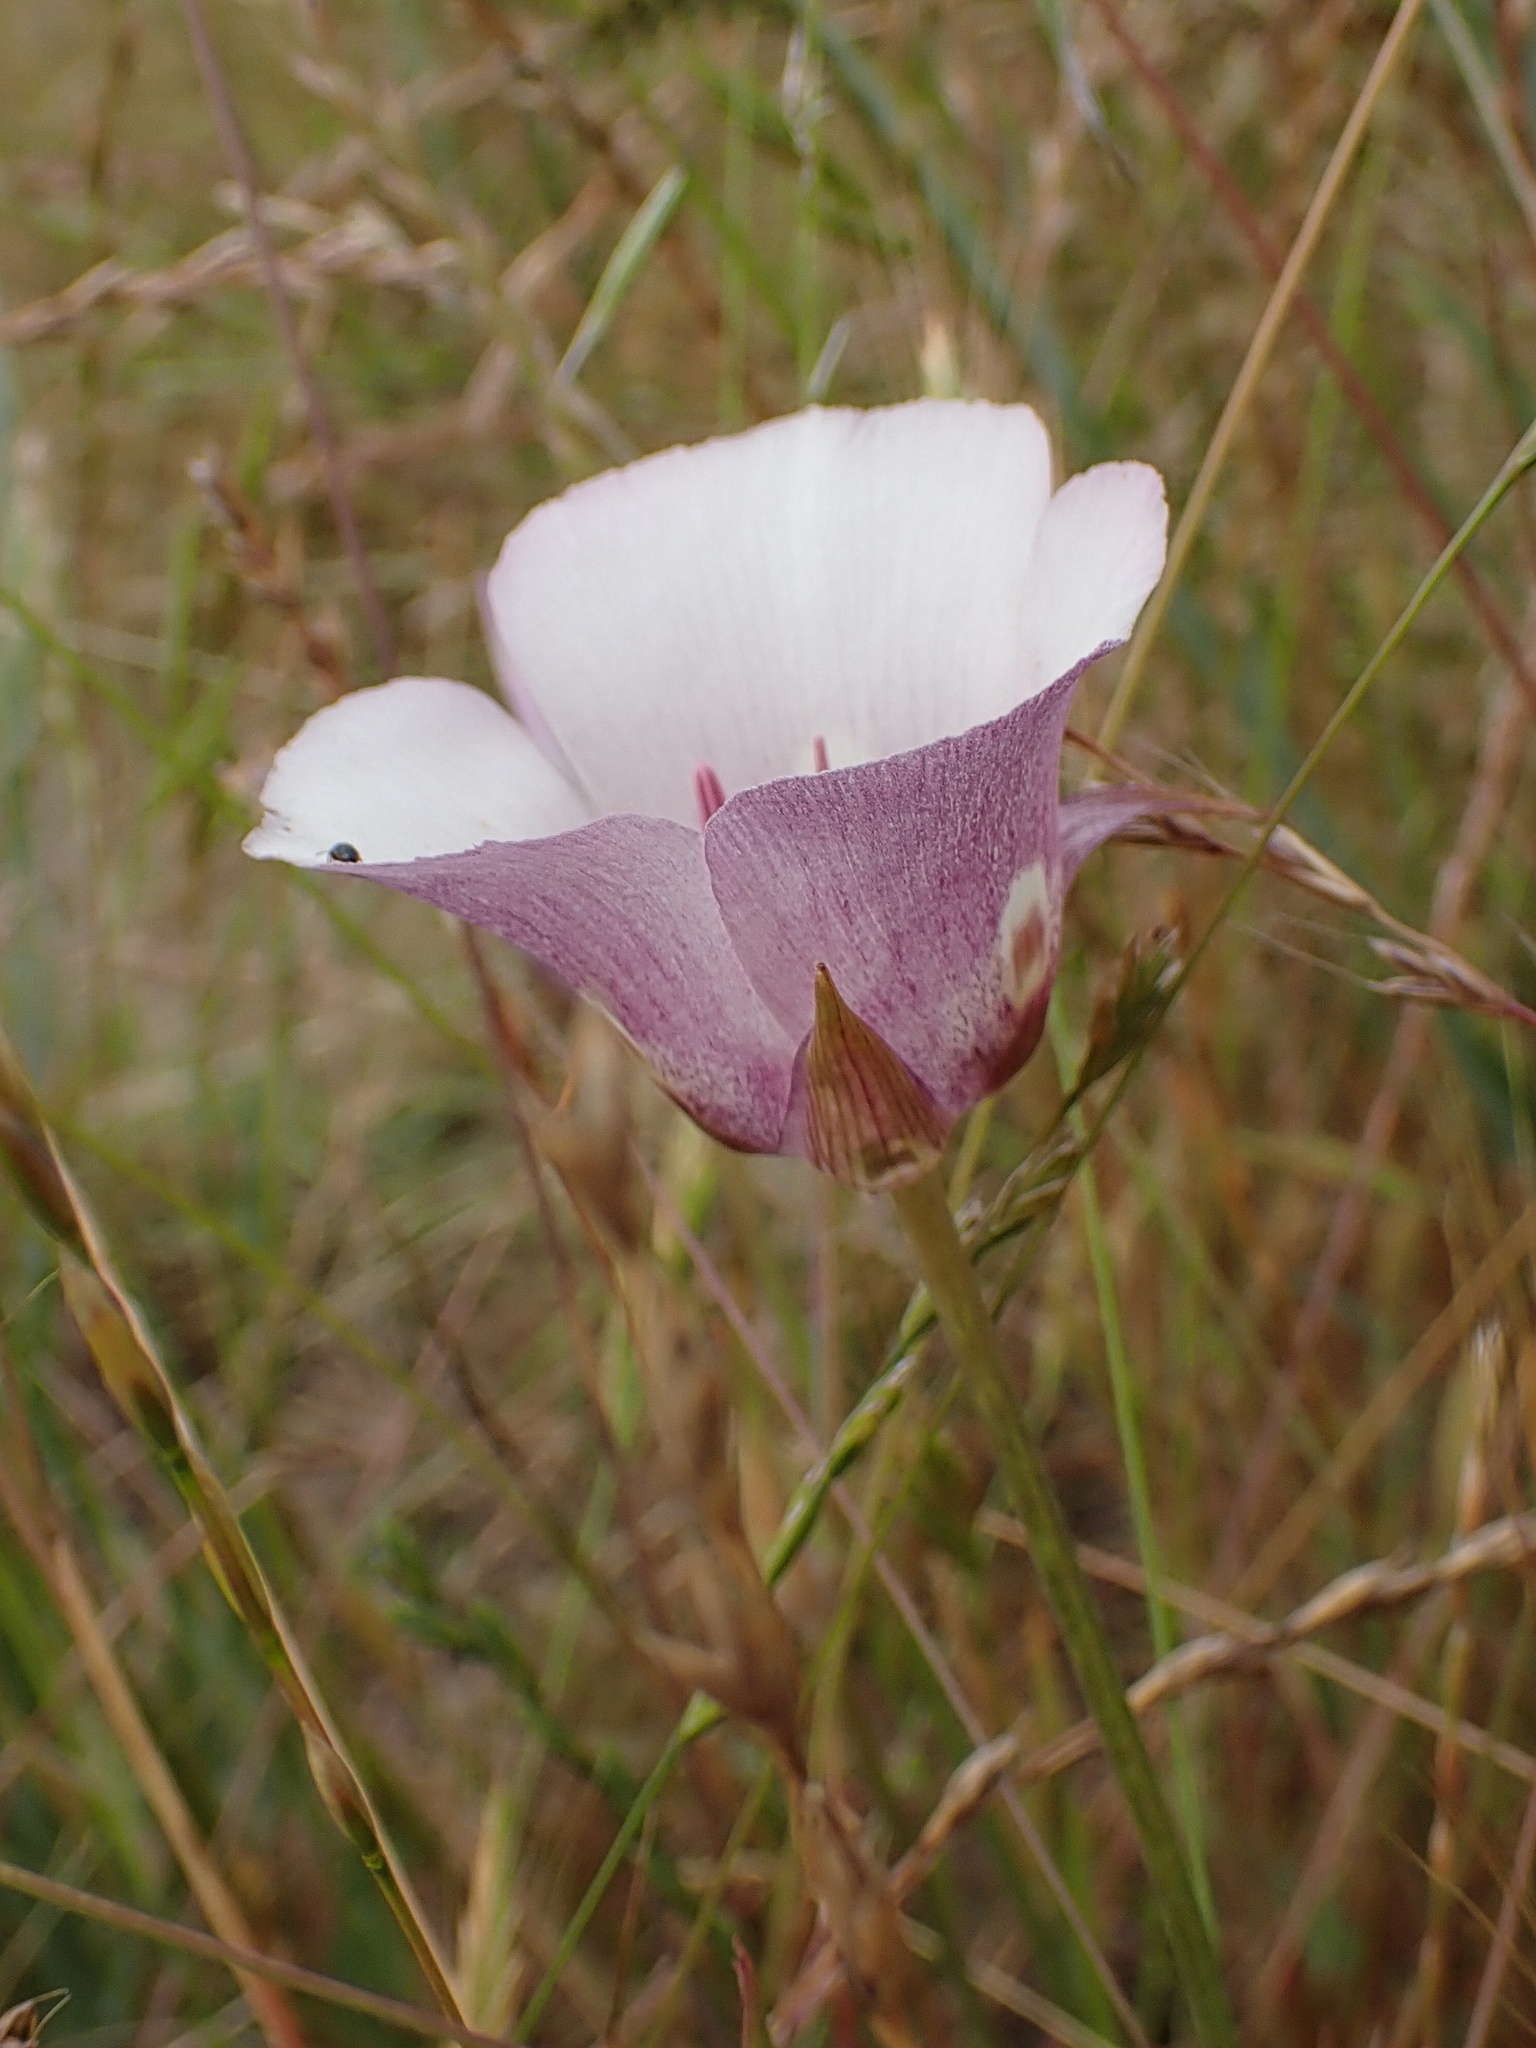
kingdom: Plantae
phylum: Tracheophyta
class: Liliopsida
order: Liliales
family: Liliaceae
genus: Calochortus
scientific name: Calochortus argillosus
